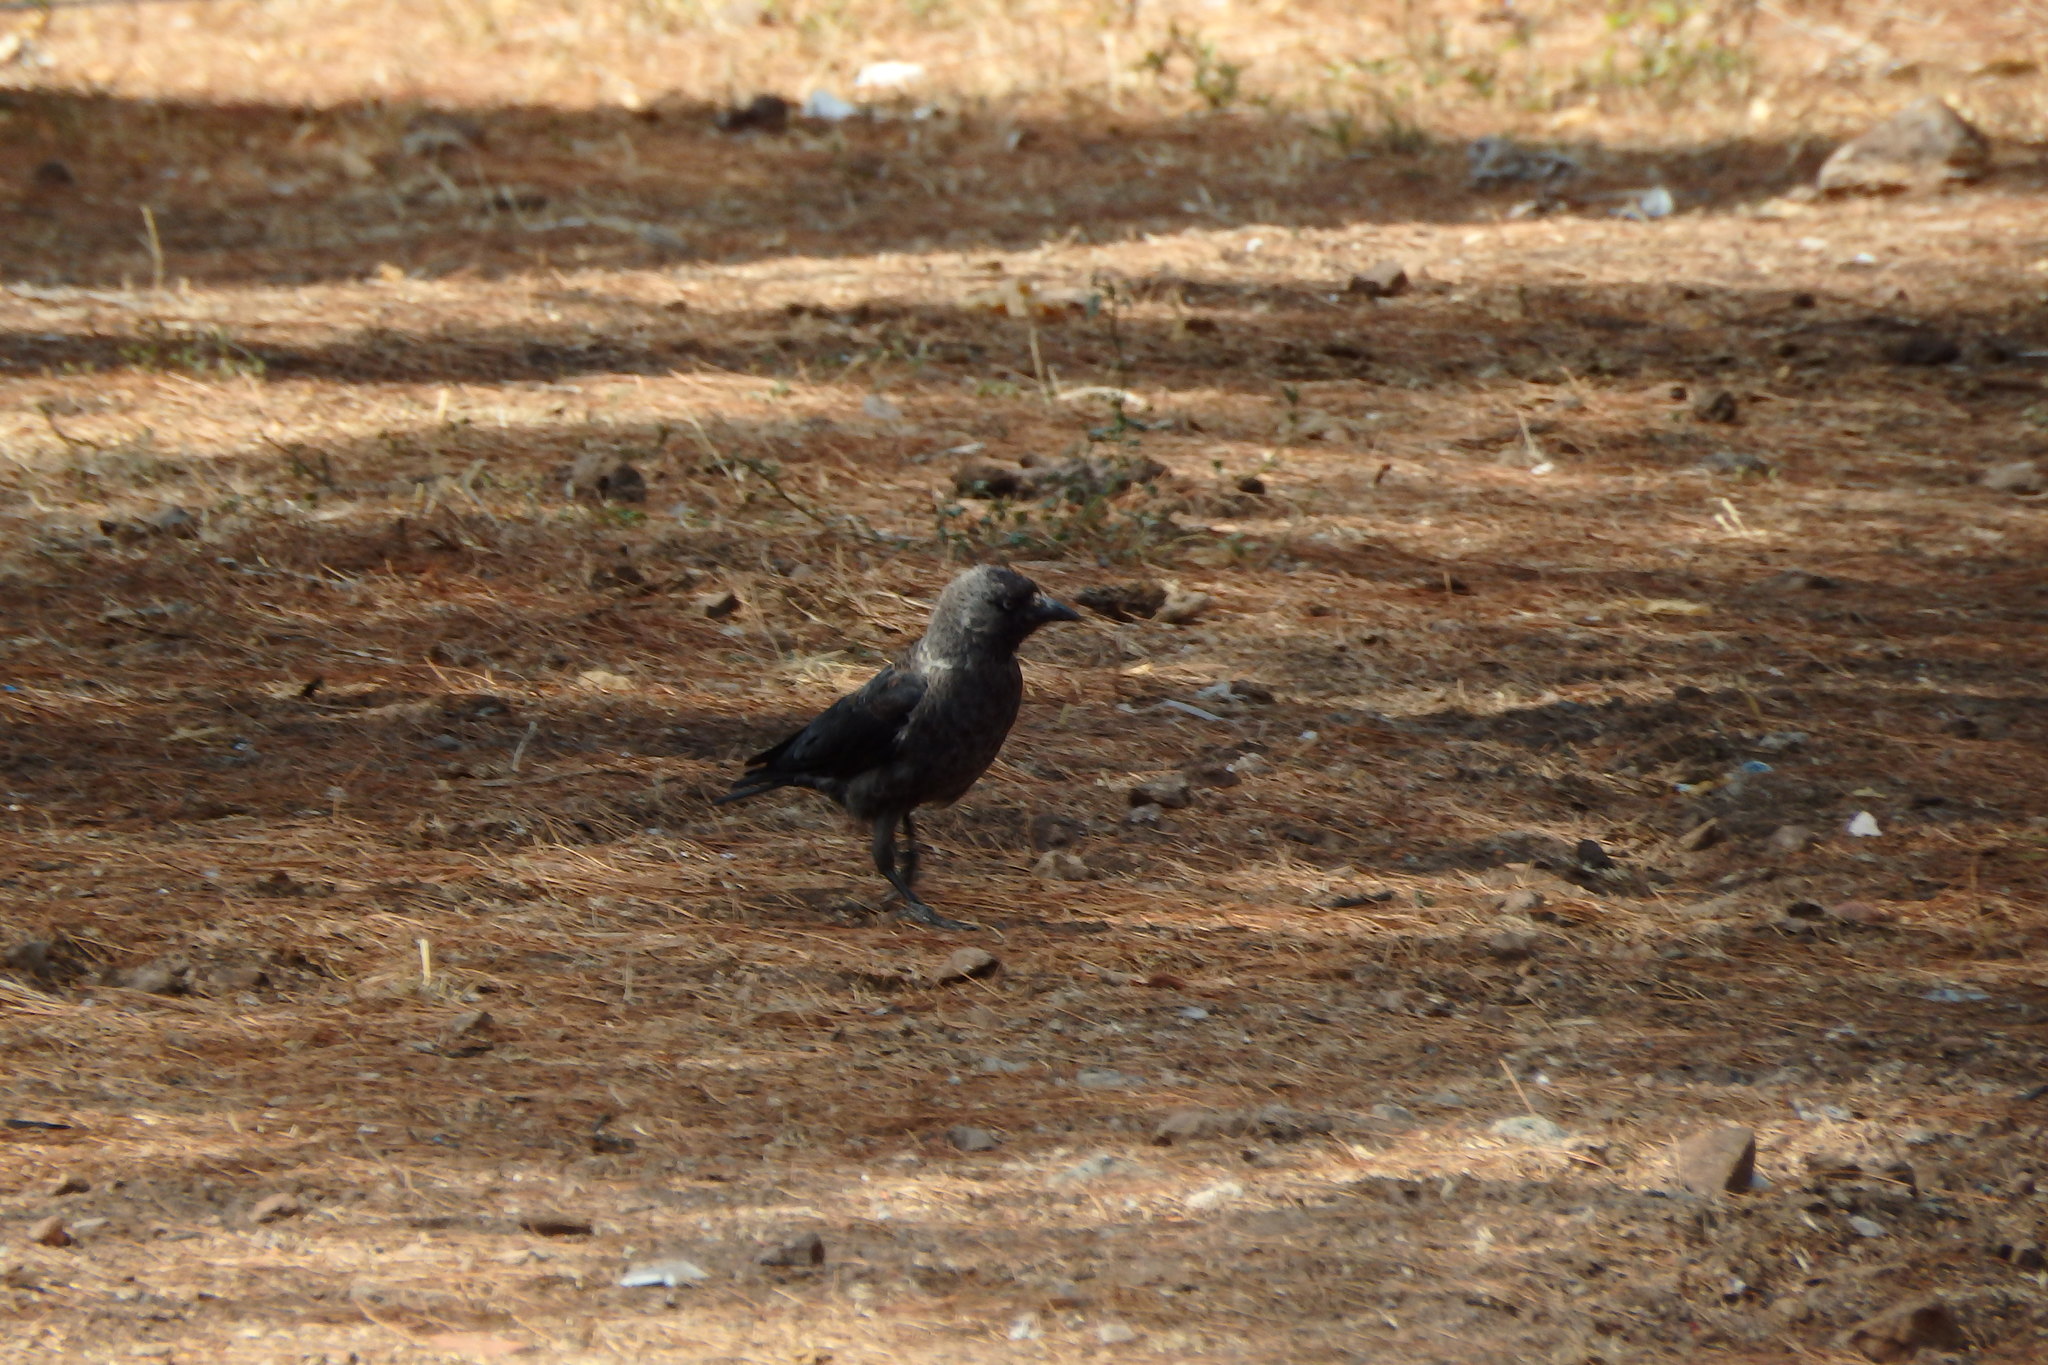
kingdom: Animalia
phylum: Chordata
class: Aves
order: Passeriformes
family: Corvidae
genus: Coloeus
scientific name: Coloeus monedula
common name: Western jackdaw
